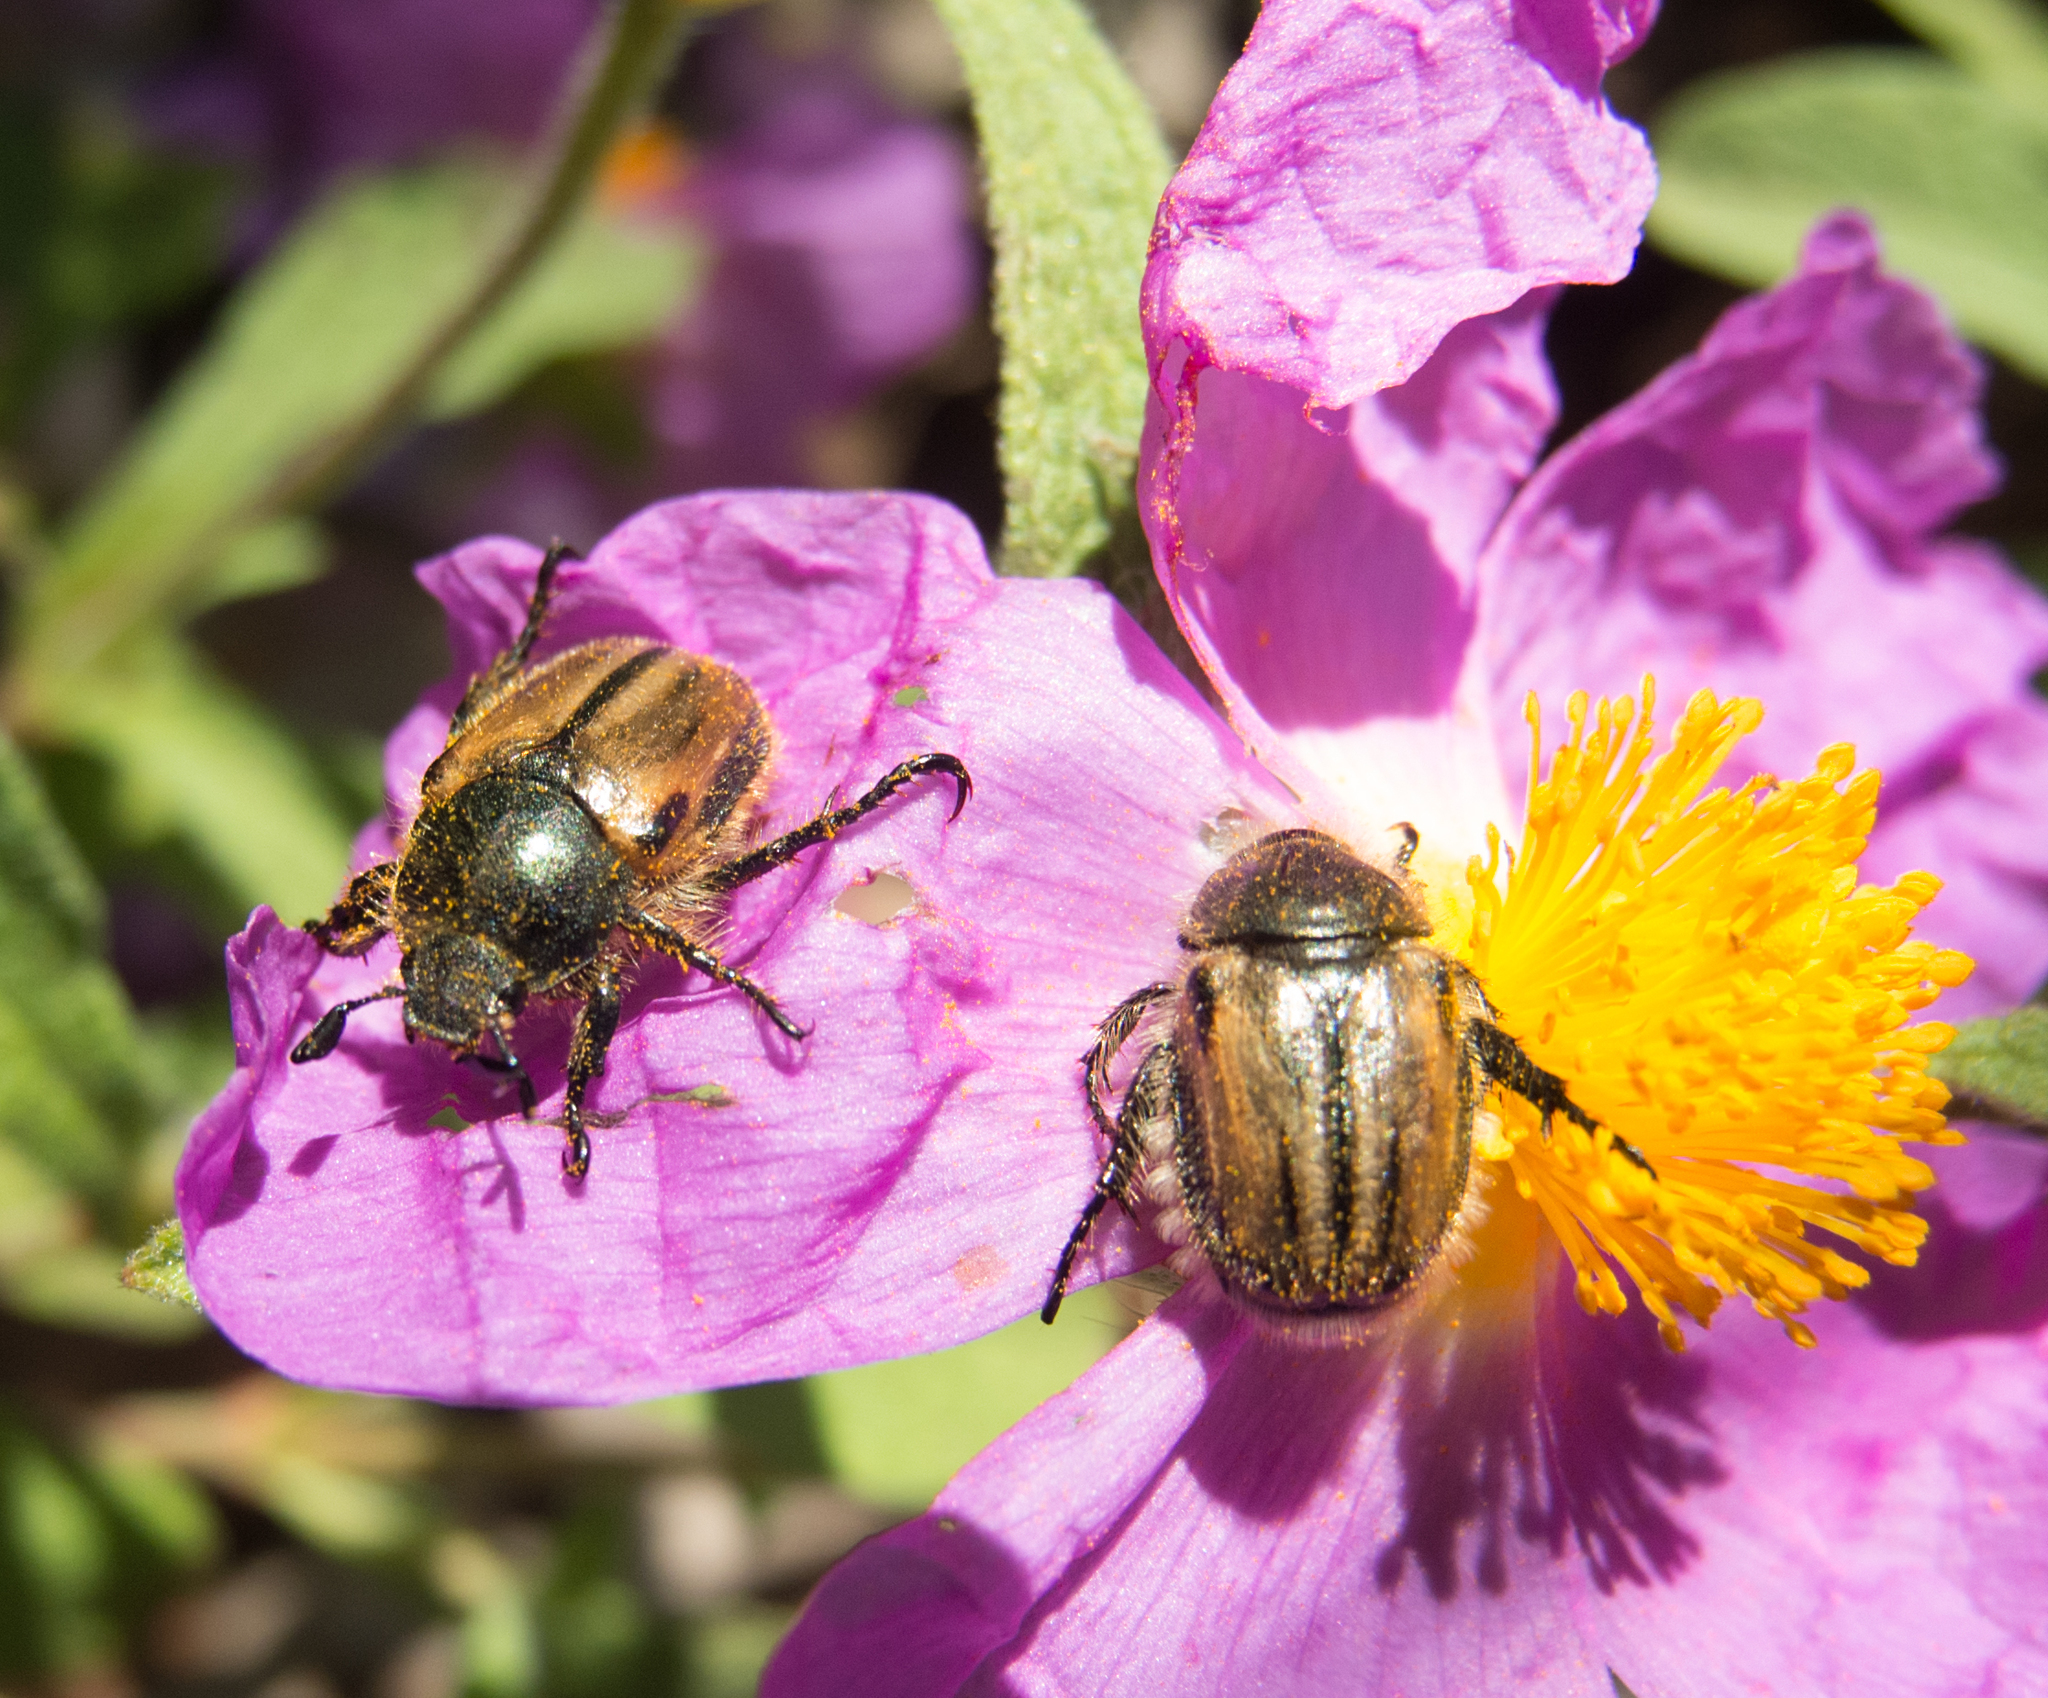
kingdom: Animalia
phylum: Arthropoda
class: Insecta
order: Coleoptera
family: Scarabaeidae
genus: Blitopertha
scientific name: Blitopertha lineolata
